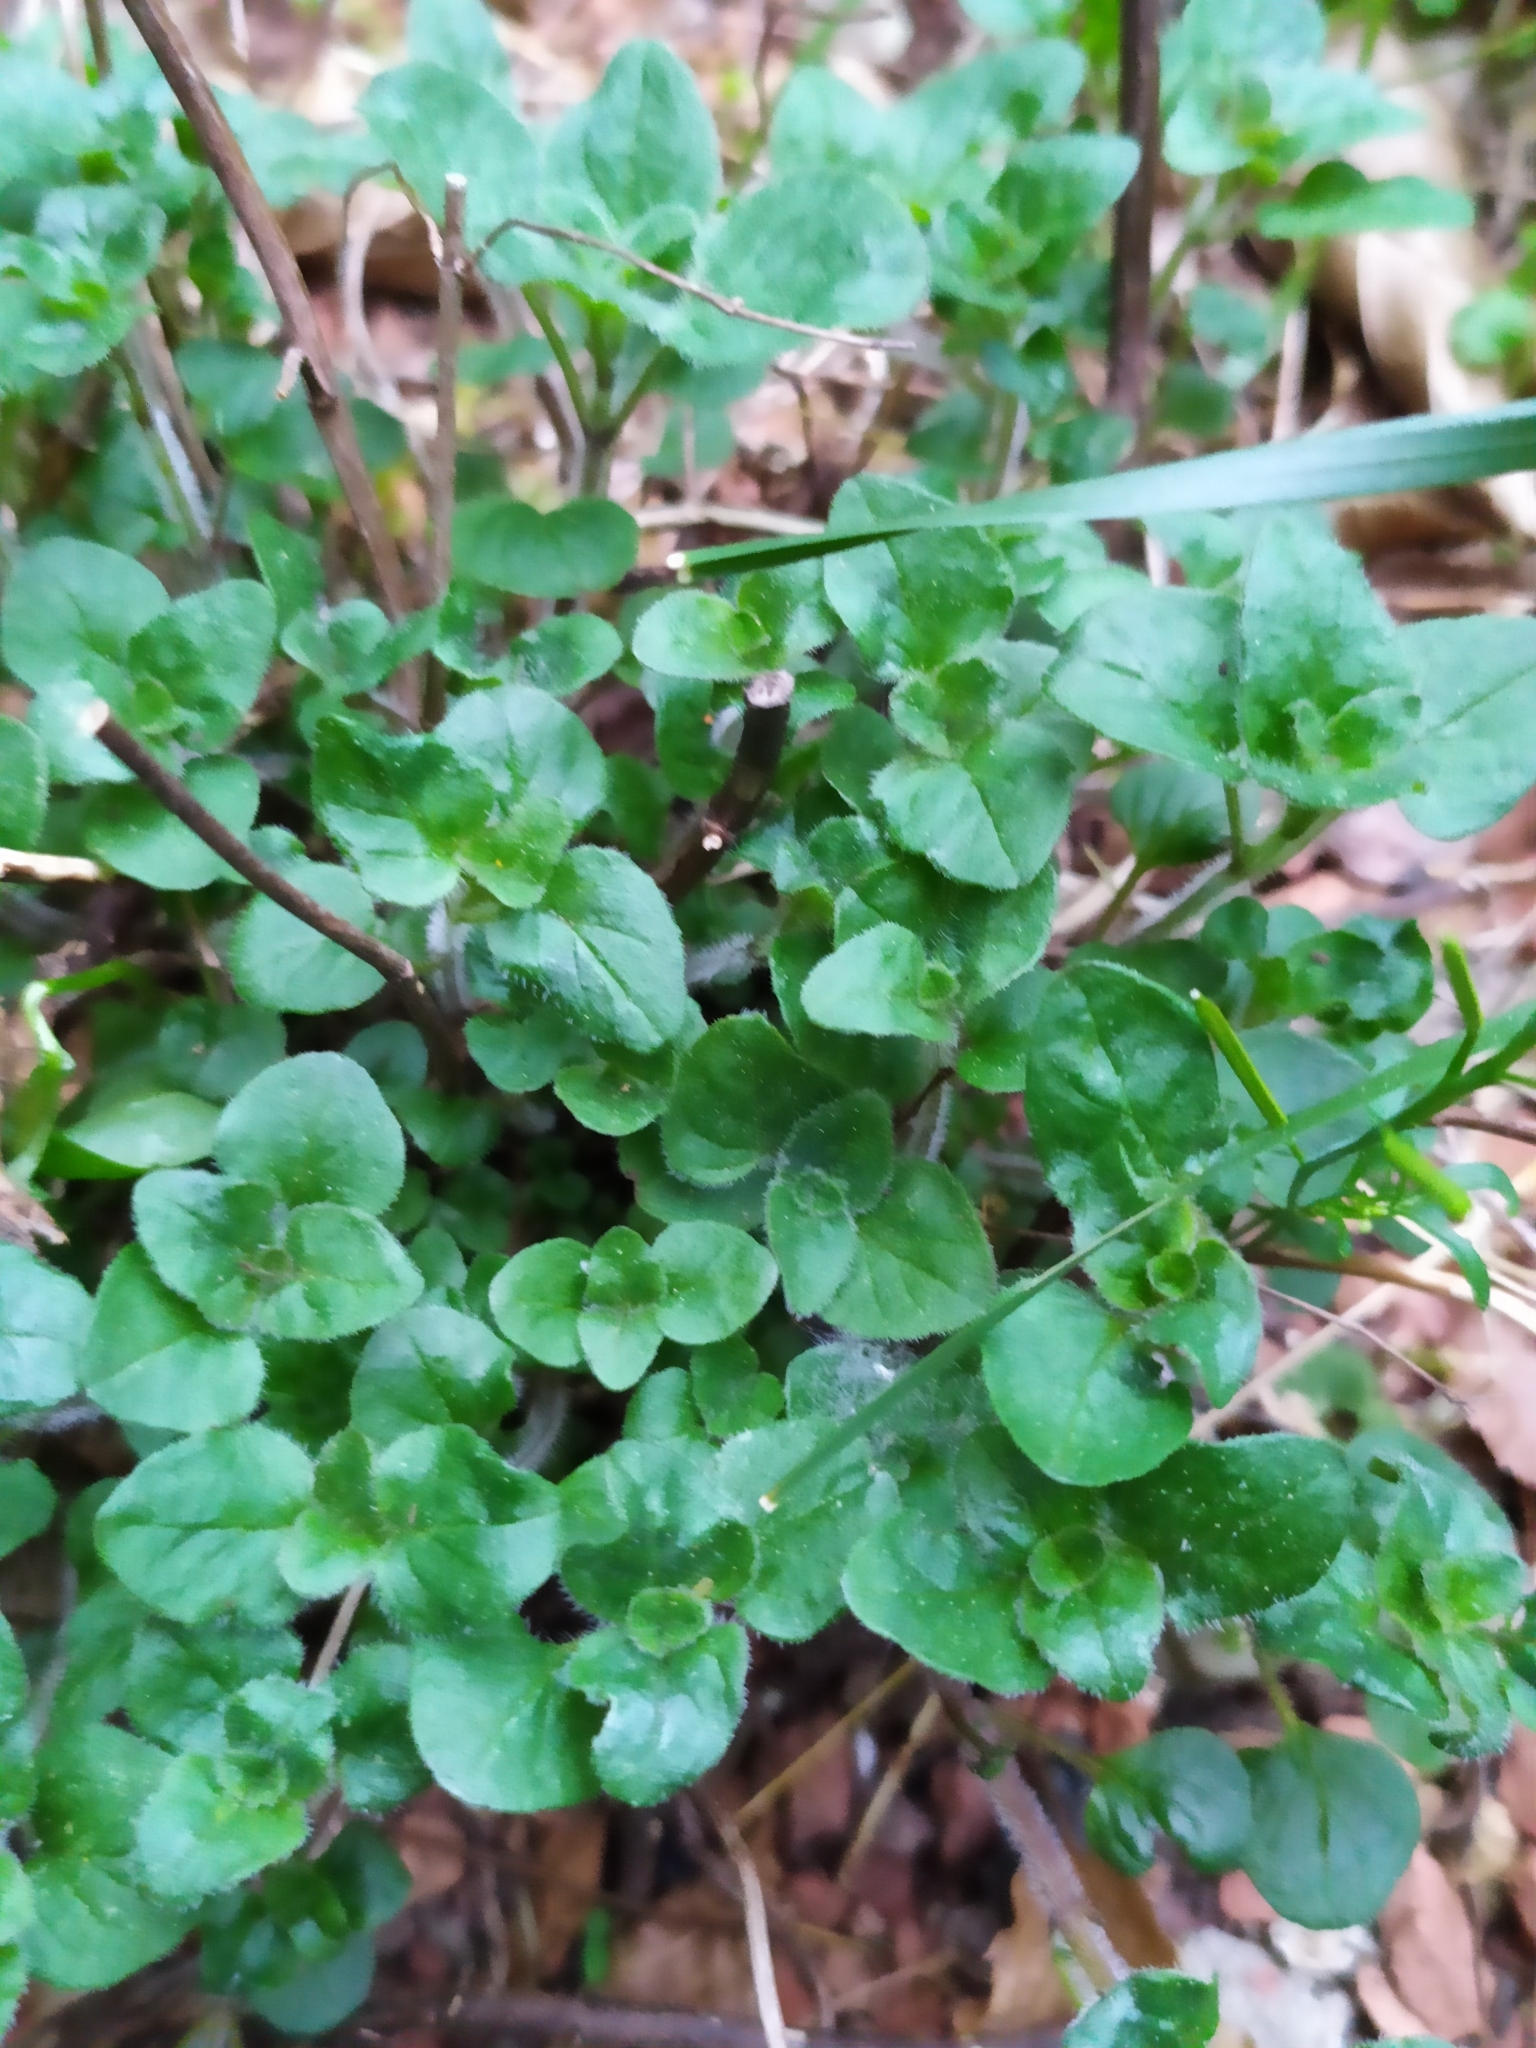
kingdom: Plantae
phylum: Tracheophyta
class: Magnoliopsida
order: Lamiales
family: Lamiaceae
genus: Origanum
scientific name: Origanum vulgare
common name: Wild marjoram
